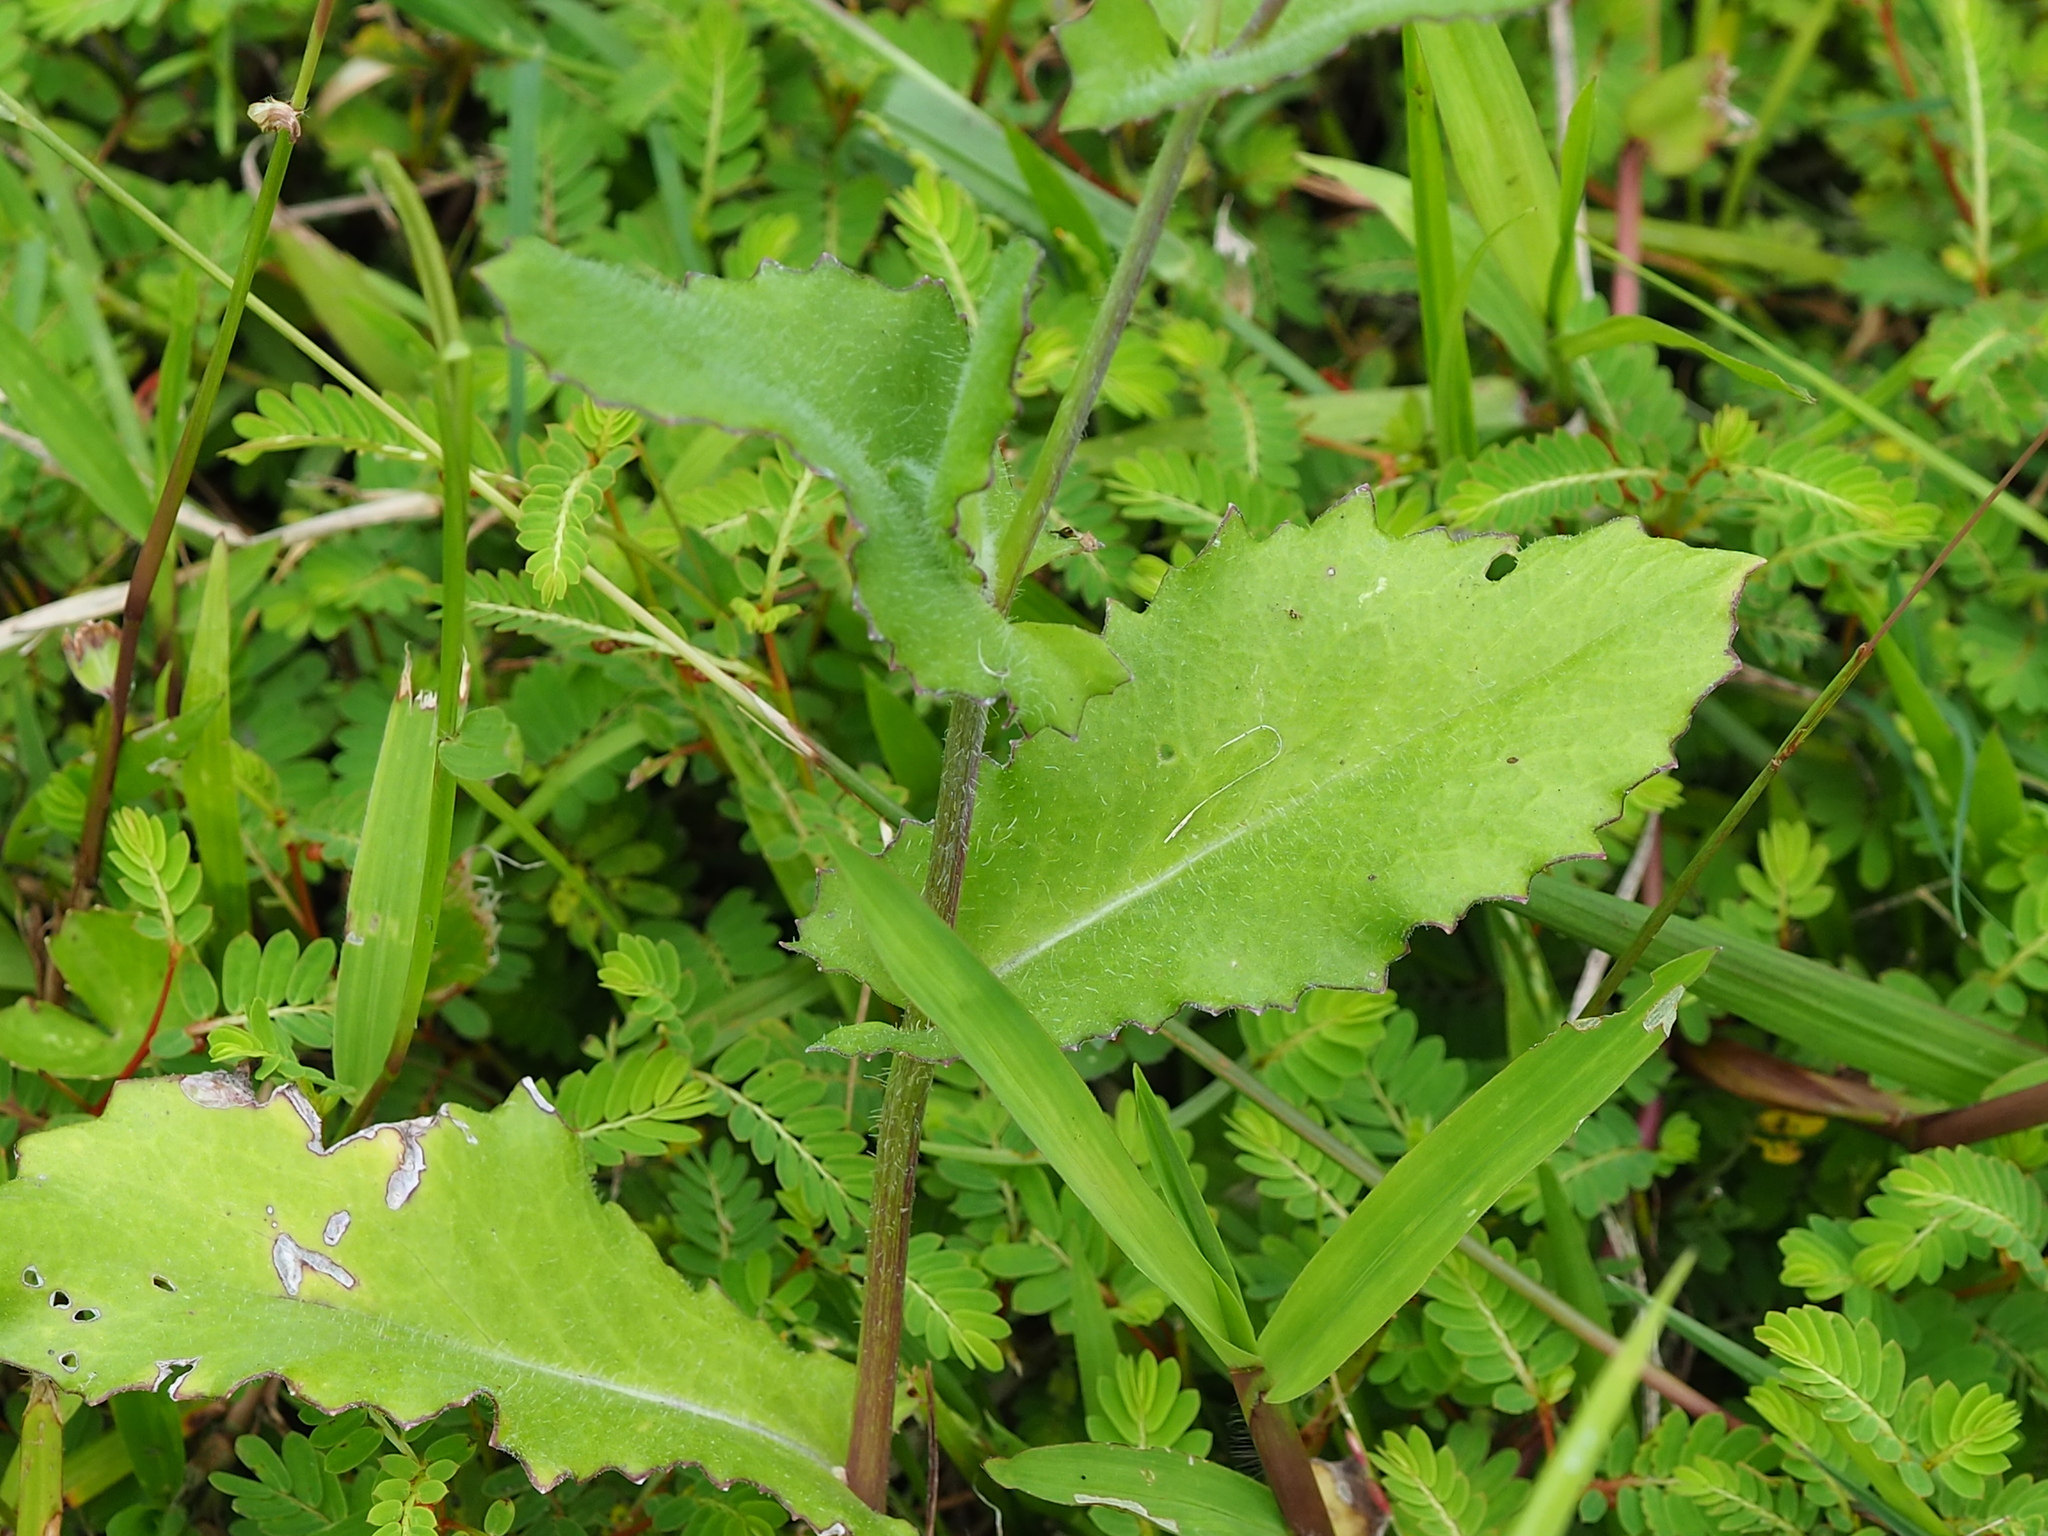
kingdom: Plantae
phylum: Tracheophyta
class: Magnoliopsida
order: Asterales
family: Asteraceae
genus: Emilia
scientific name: Emilia praetermissa
